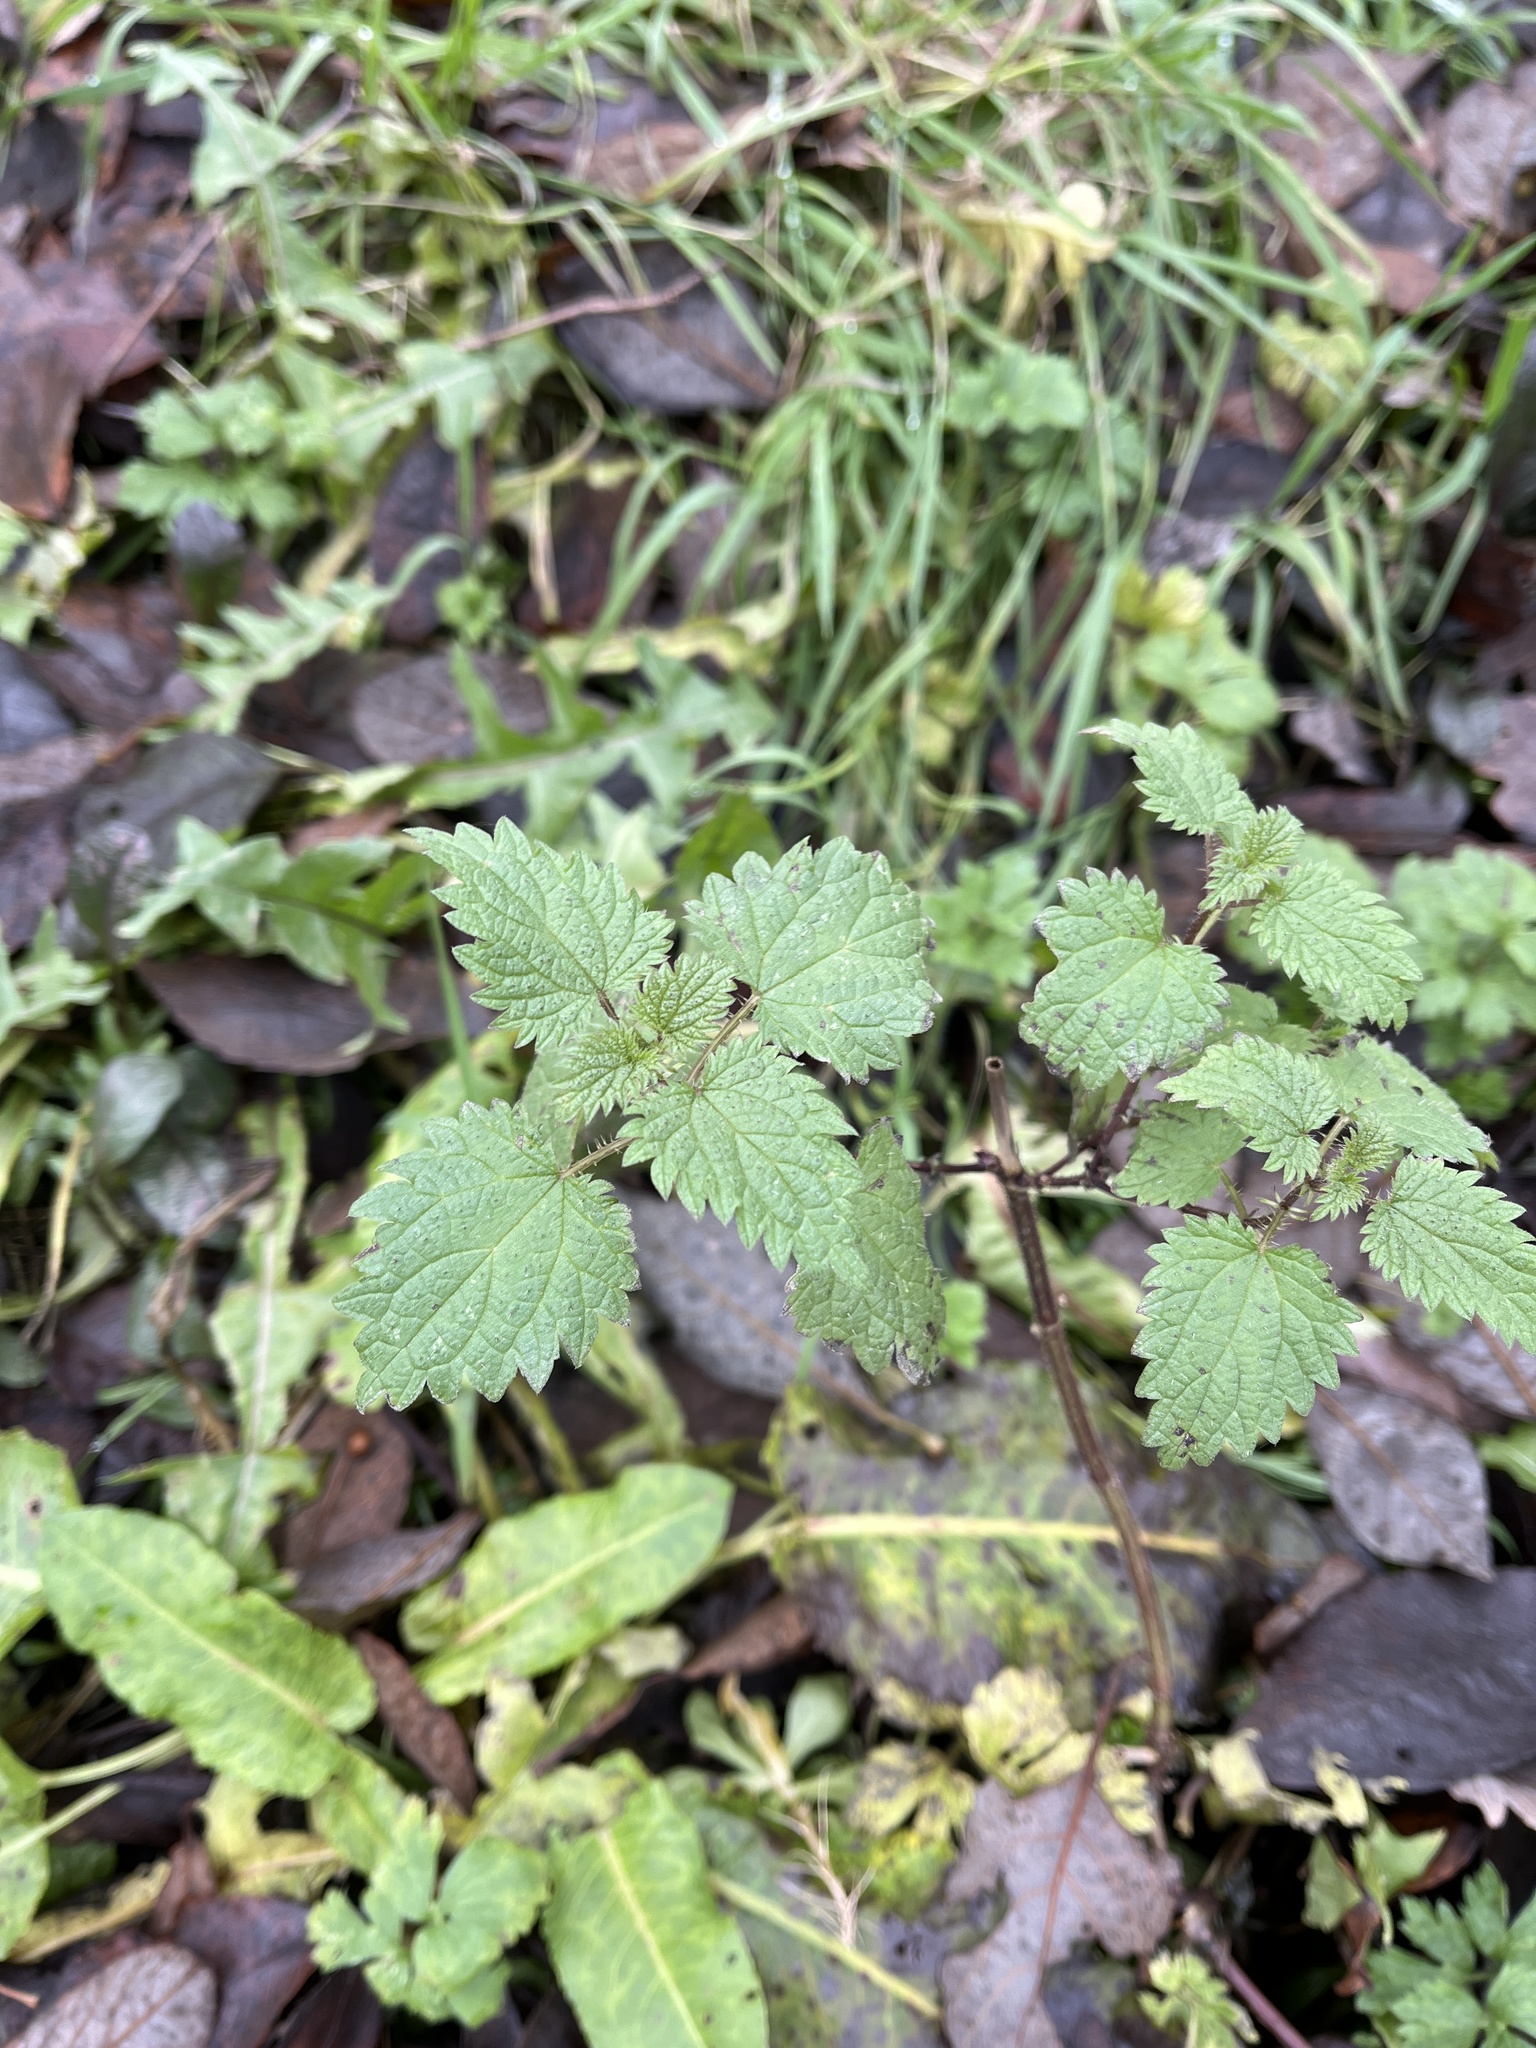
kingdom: Plantae
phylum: Tracheophyta
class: Magnoliopsida
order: Rosales
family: Urticaceae
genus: Urtica
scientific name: Urtica dioica
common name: Common nettle
